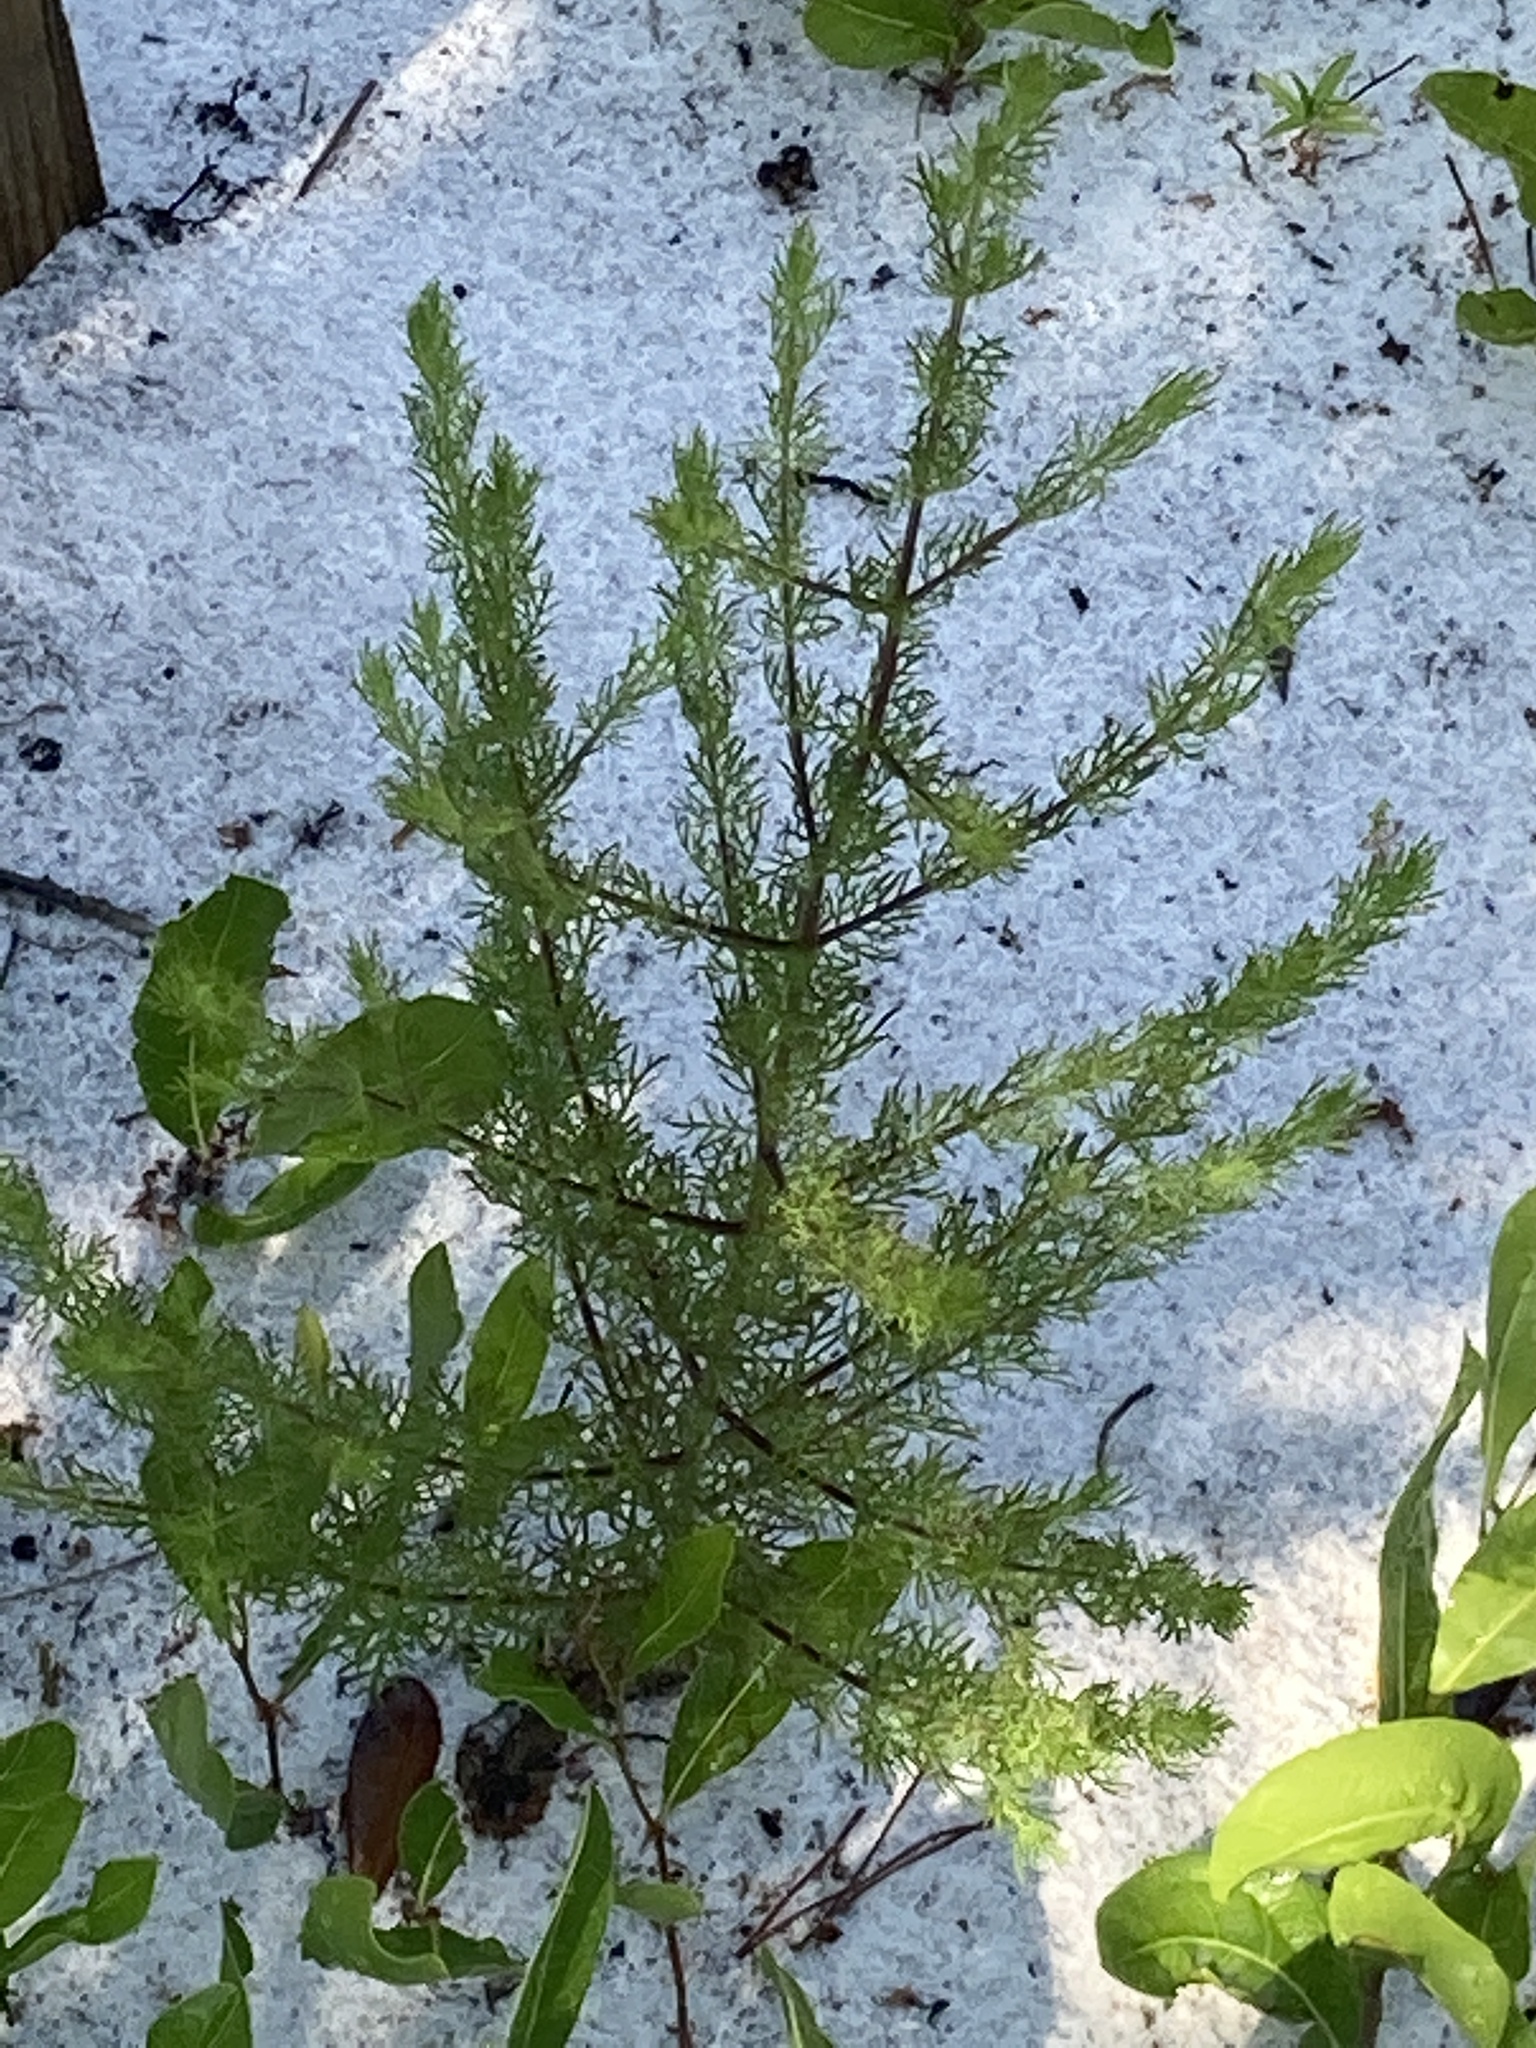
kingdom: Plantae
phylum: Tracheophyta
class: Magnoliopsida
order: Lamiales
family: Orobanchaceae
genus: Seymeria
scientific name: Seymeria cassioides
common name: Yaupon black-senna
